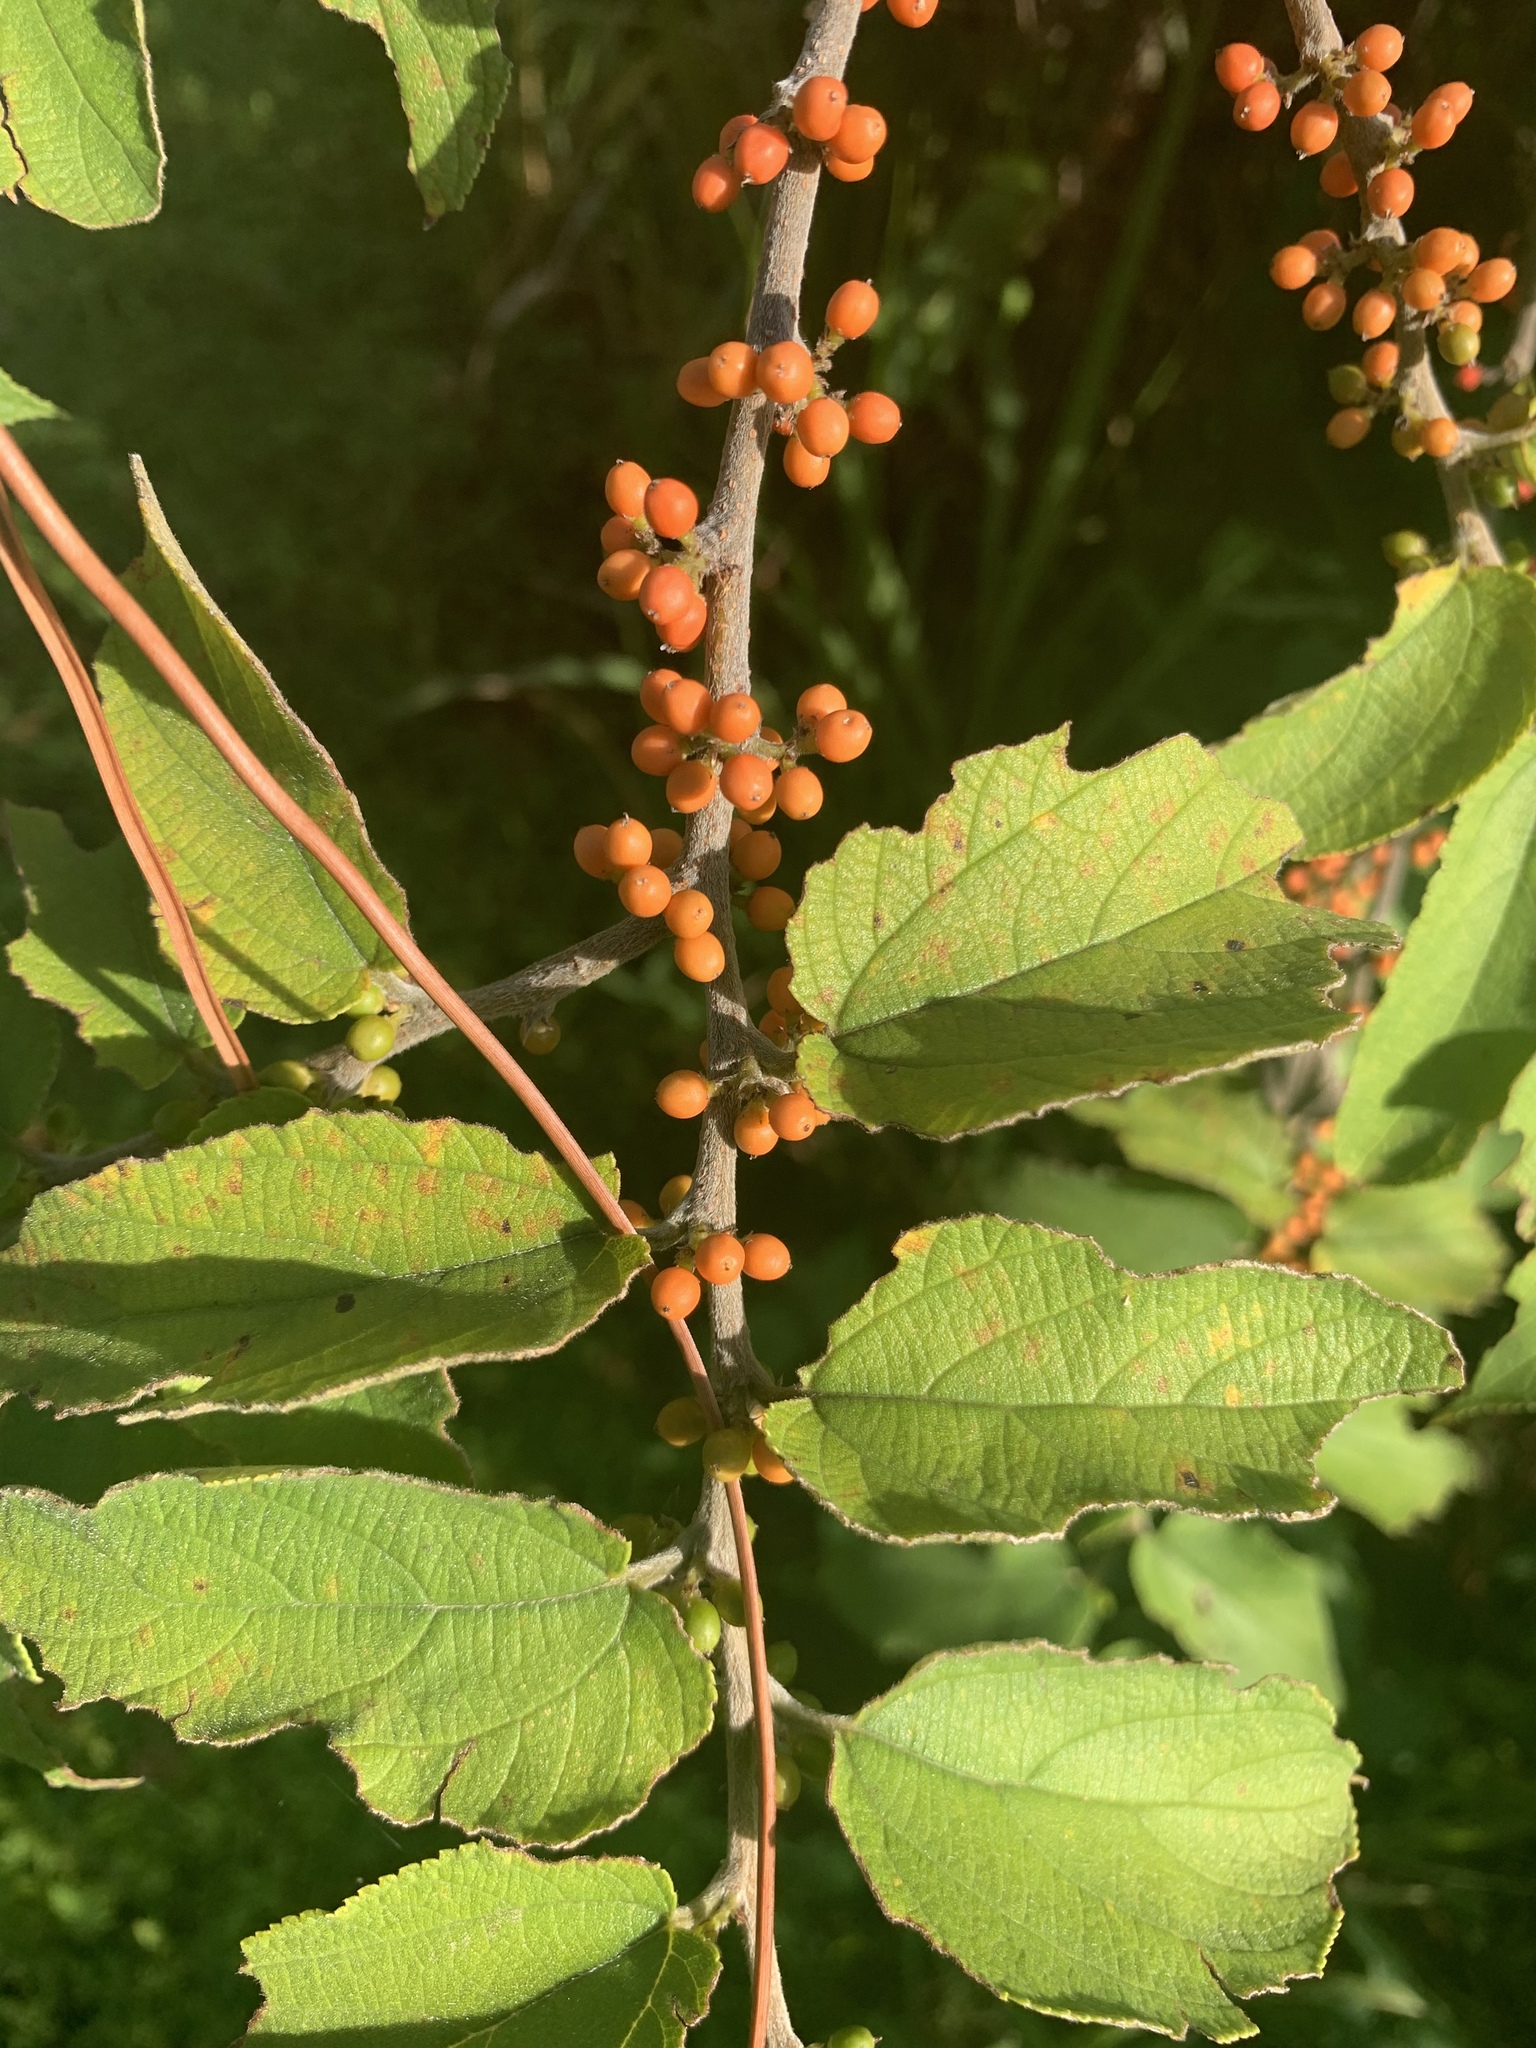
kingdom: Plantae
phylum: Tracheophyta
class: Magnoliopsida
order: Rosales
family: Cannabaceae
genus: Trema
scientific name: Trema micranthum
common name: Jamaican nettletree
